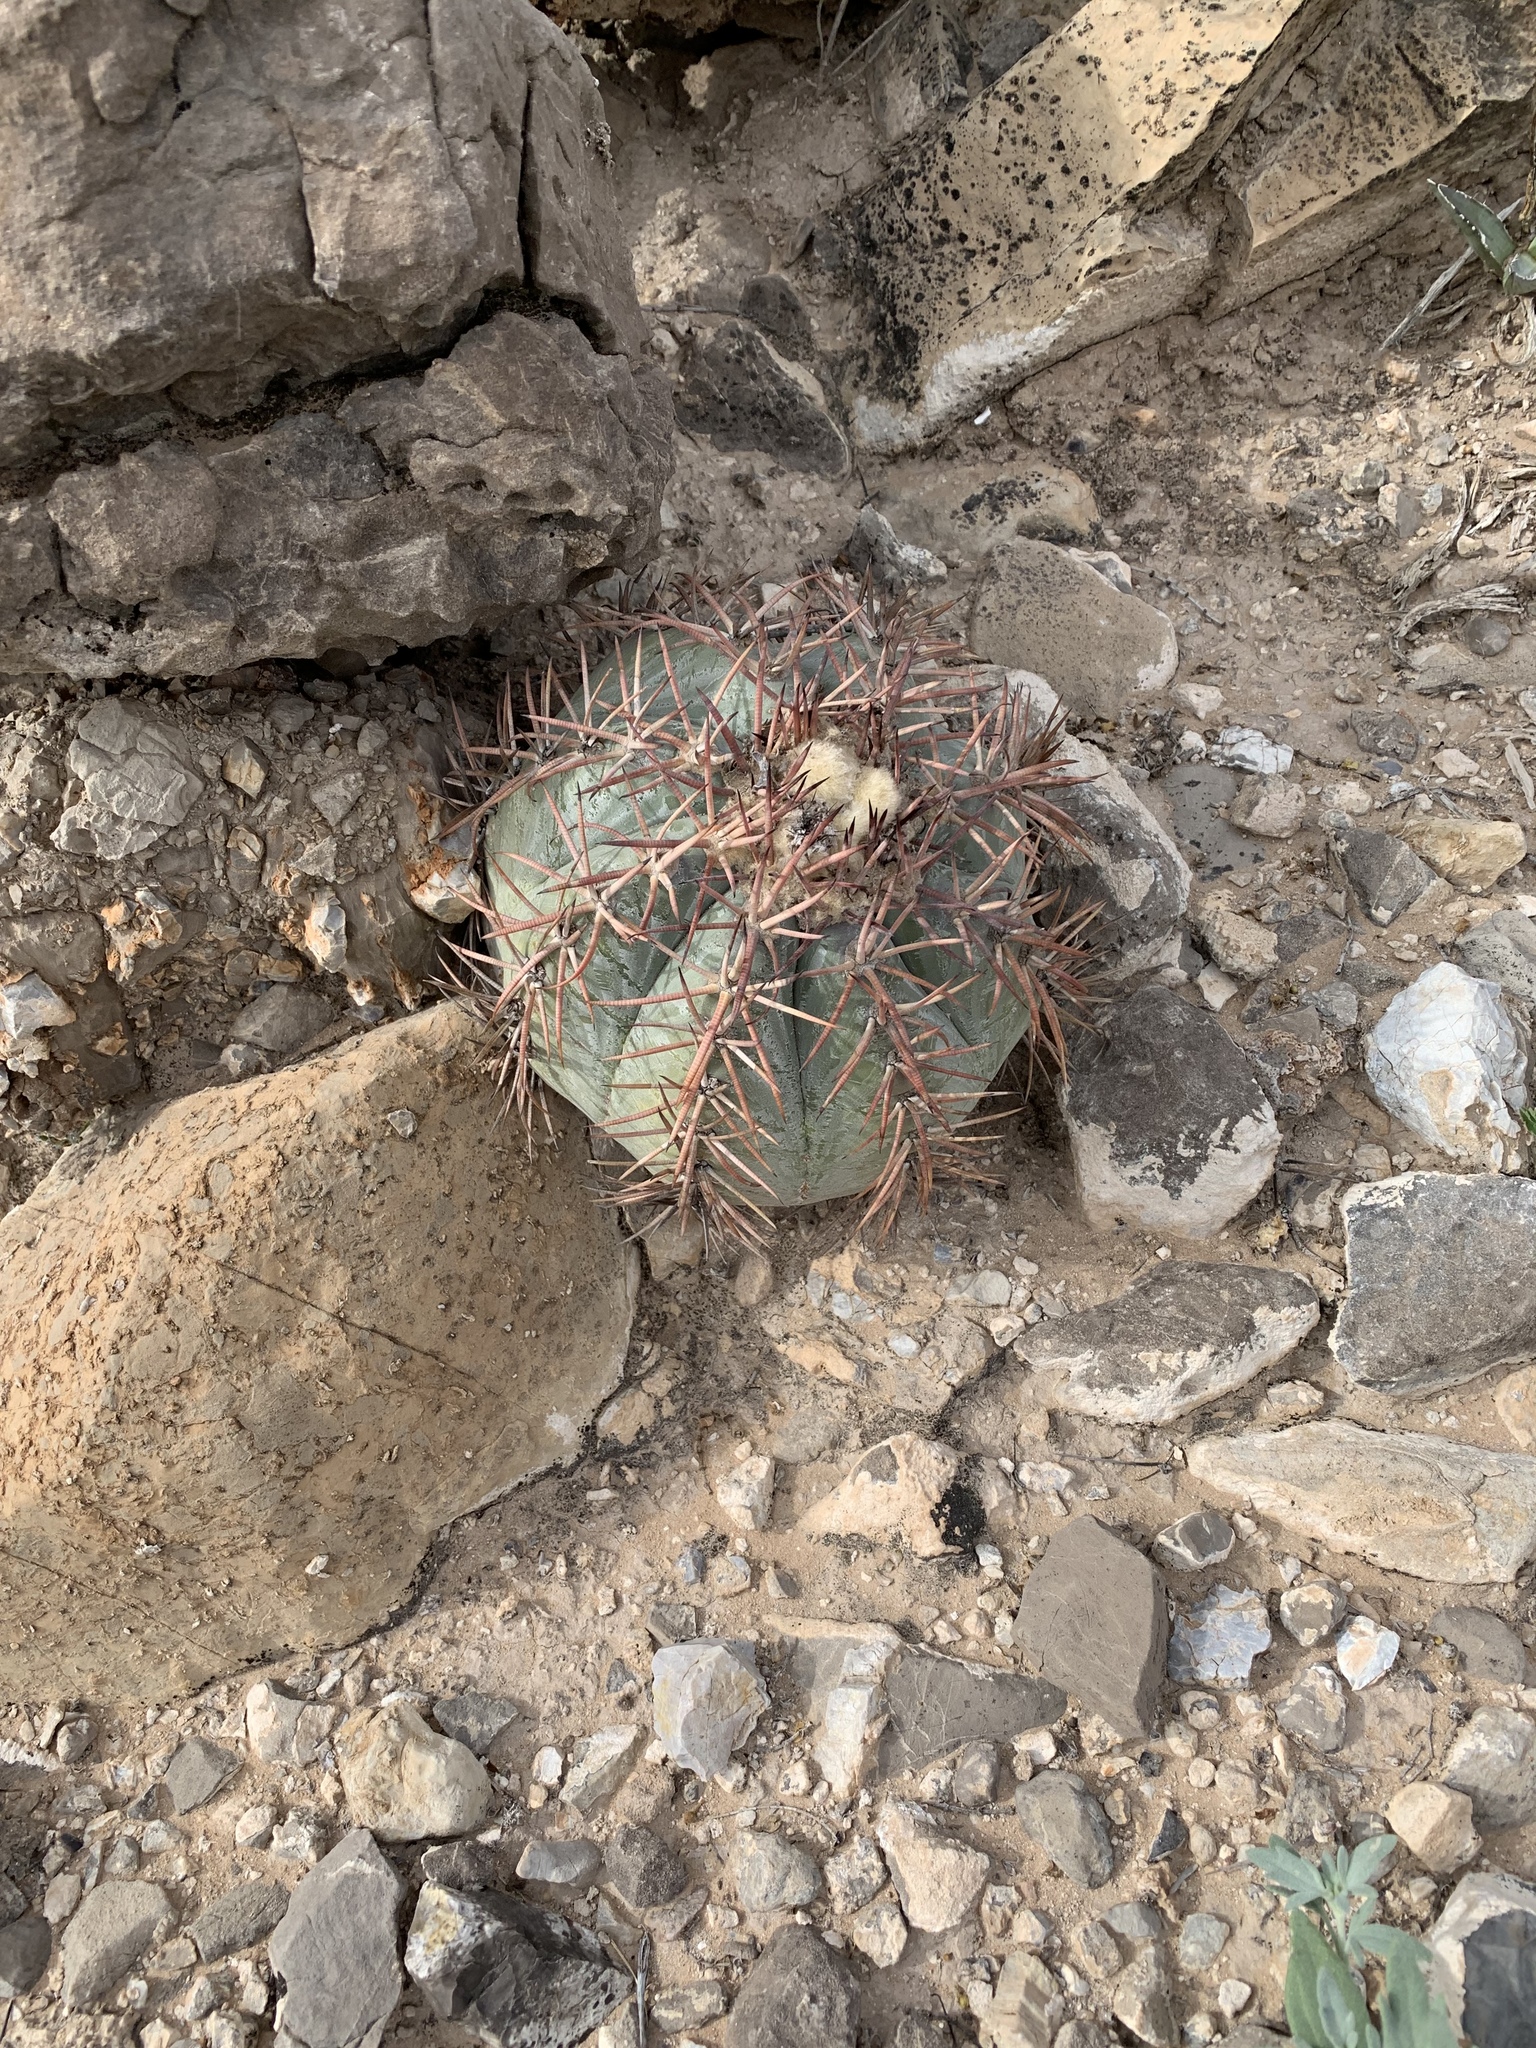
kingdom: Plantae
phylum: Tracheophyta
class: Magnoliopsida
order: Caryophyllales
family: Cactaceae
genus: Echinocactus
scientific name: Echinocactus horizonthalonius
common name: Devilshead
